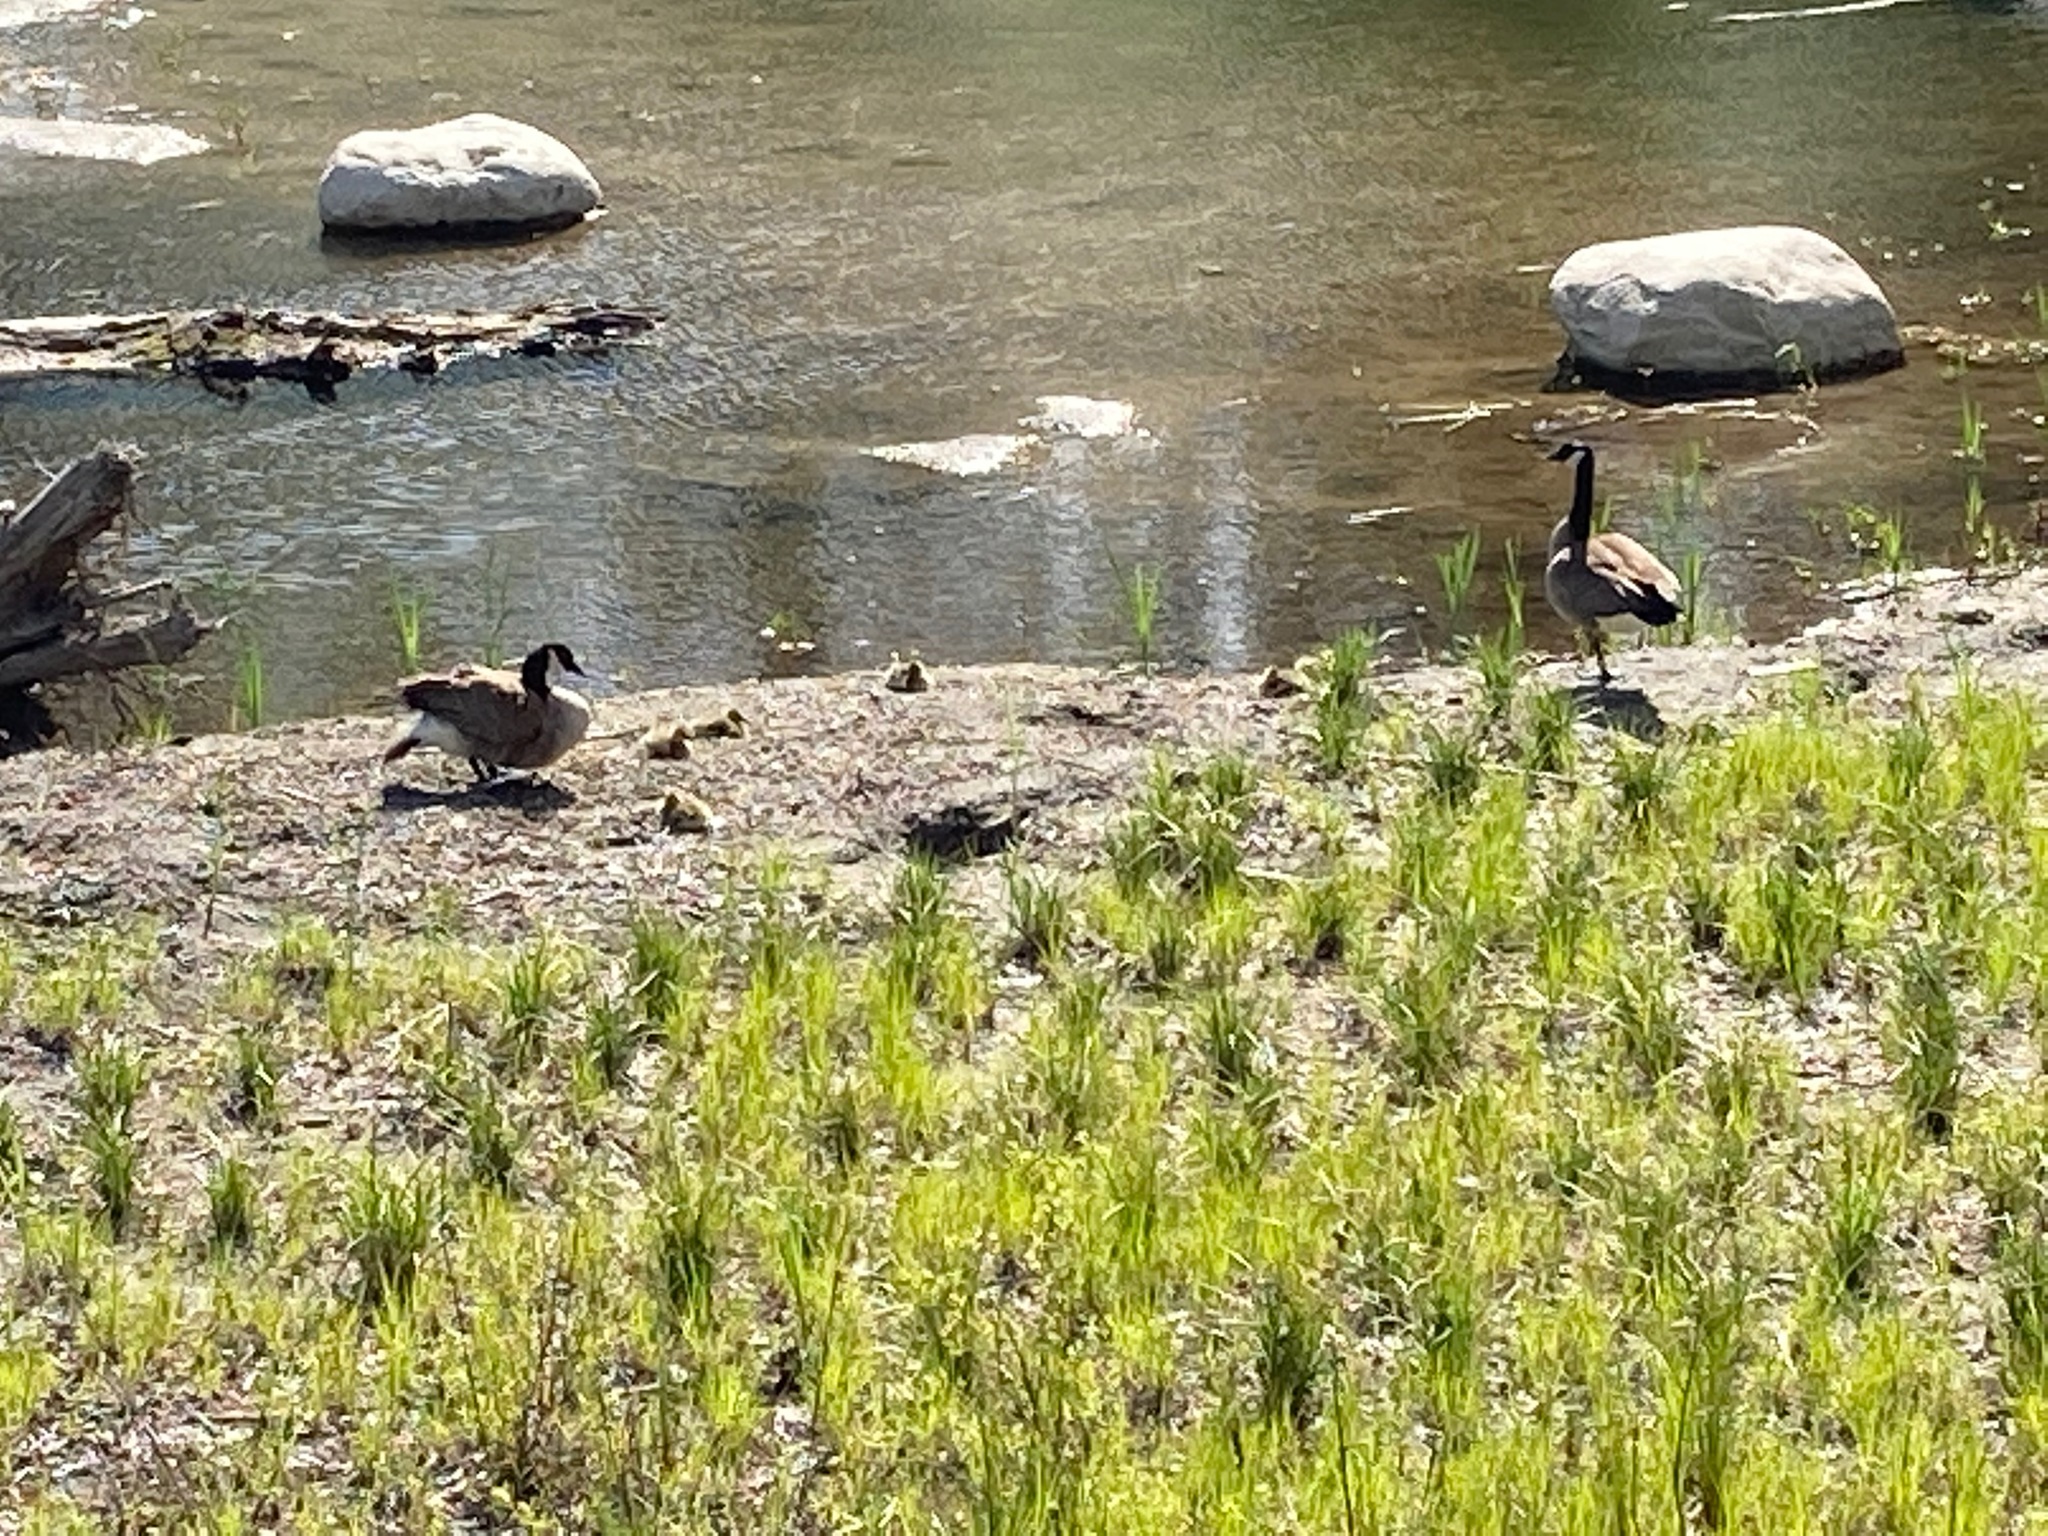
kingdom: Animalia
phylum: Chordata
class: Aves
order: Anseriformes
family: Anatidae
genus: Branta
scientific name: Branta canadensis
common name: Canada goose
